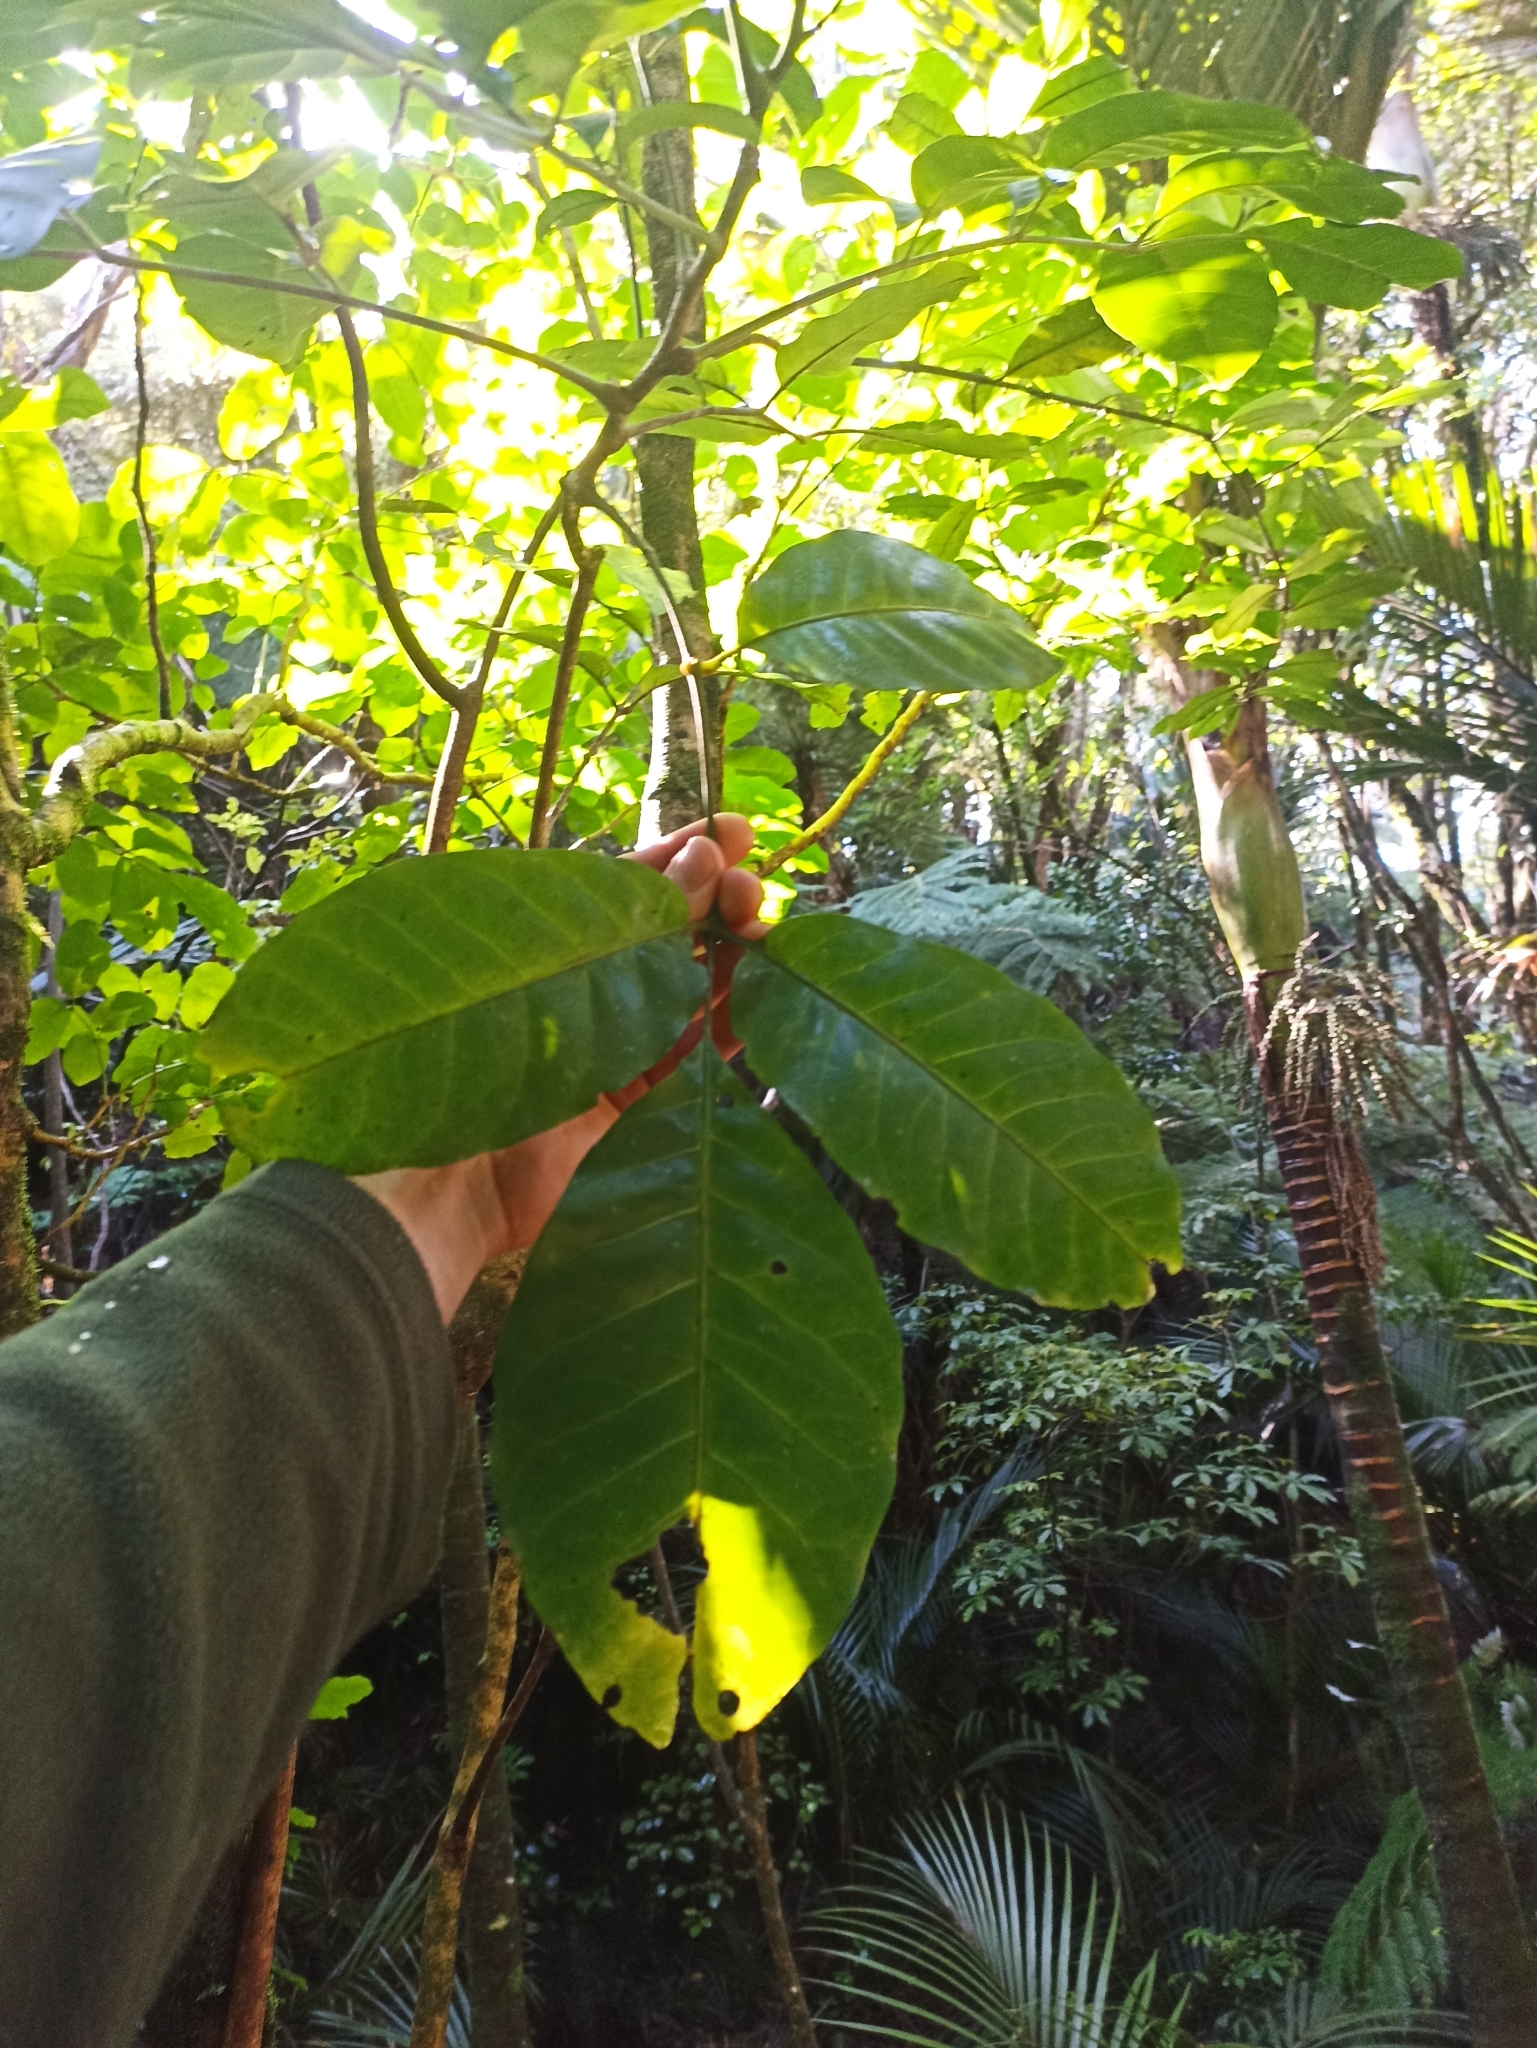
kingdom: Plantae
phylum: Tracheophyta
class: Magnoliopsida
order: Sapindales
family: Meliaceae
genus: Didymocheton
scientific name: Didymocheton spectabilis
